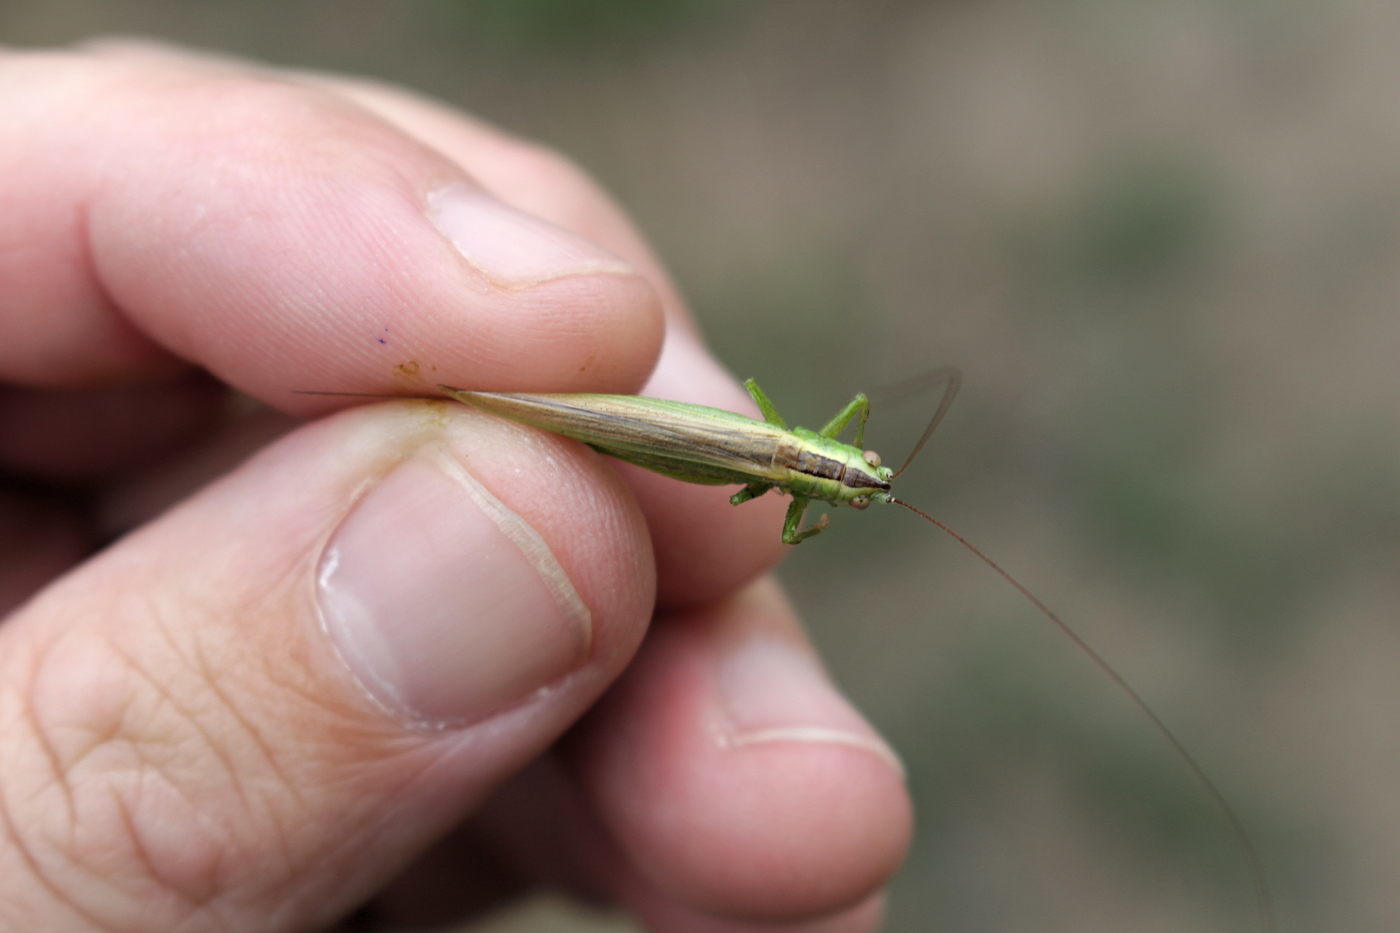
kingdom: Animalia
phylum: Arthropoda
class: Insecta
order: Orthoptera
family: Tettigoniidae
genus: Conocephalus
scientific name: Conocephalus fuscus
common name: Long-winged conehead
